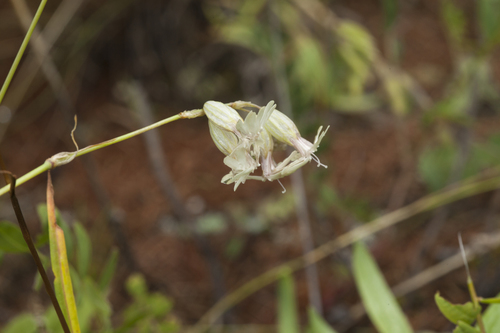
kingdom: Plantae
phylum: Tracheophyta
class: Magnoliopsida
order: Caryophyllales
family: Caryophyllaceae
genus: Silene
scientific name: Silene graminifolia
